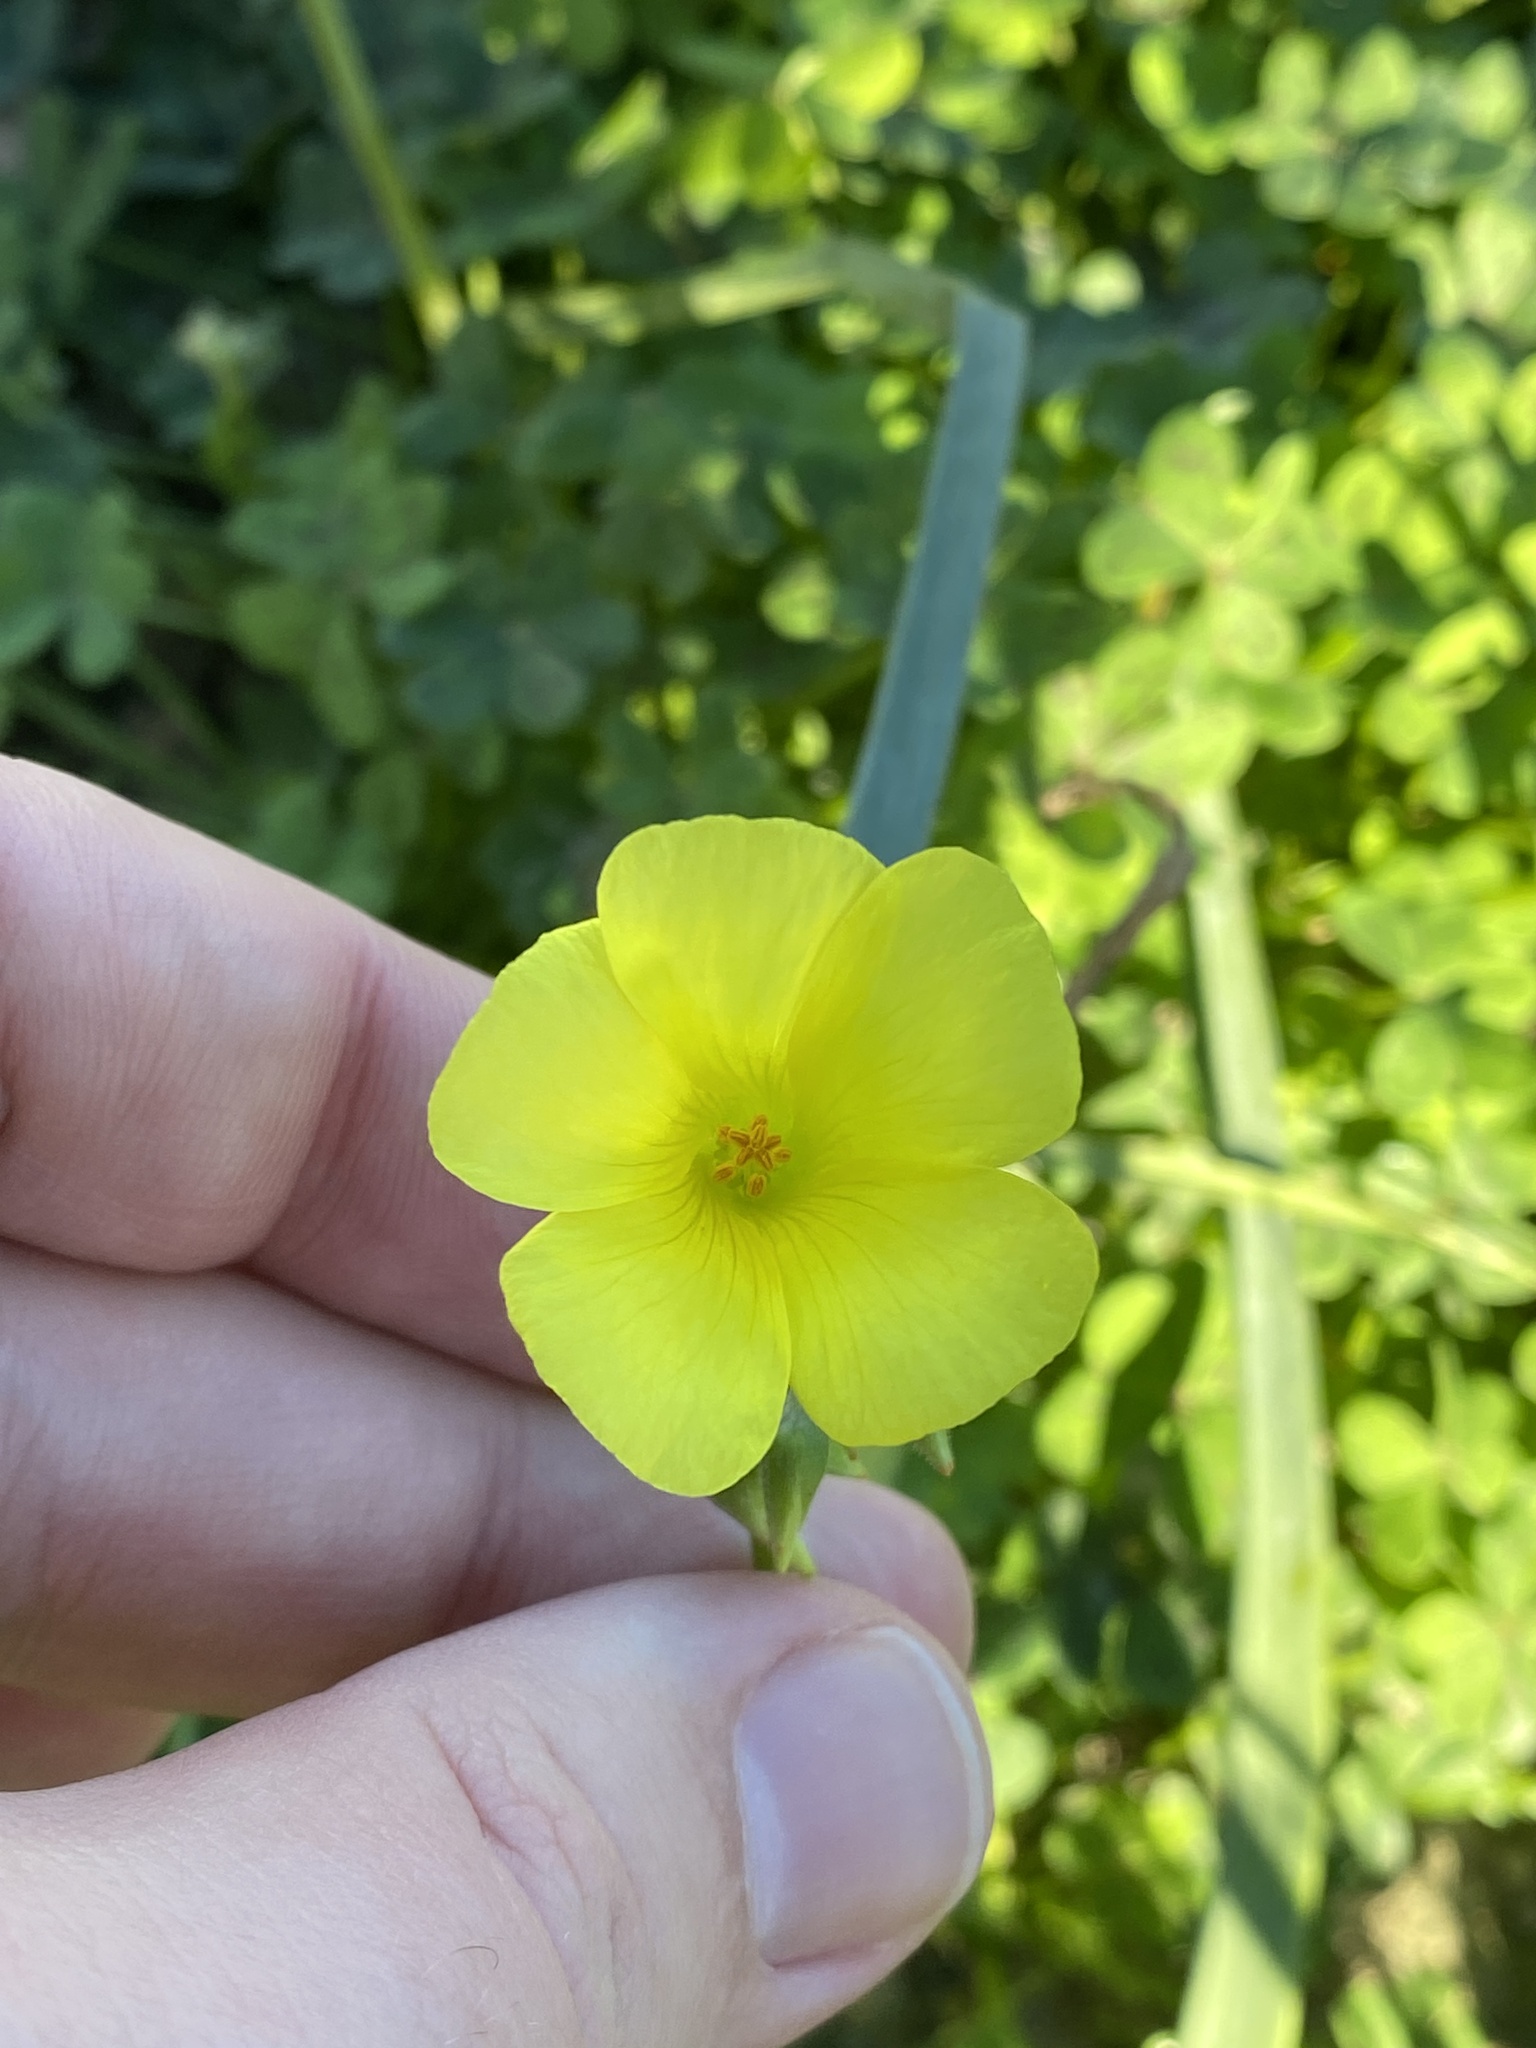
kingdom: Plantae
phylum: Tracheophyta
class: Magnoliopsida
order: Oxalidales
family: Oxalidaceae
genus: Oxalis
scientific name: Oxalis pes-caprae
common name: Bermuda-buttercup
